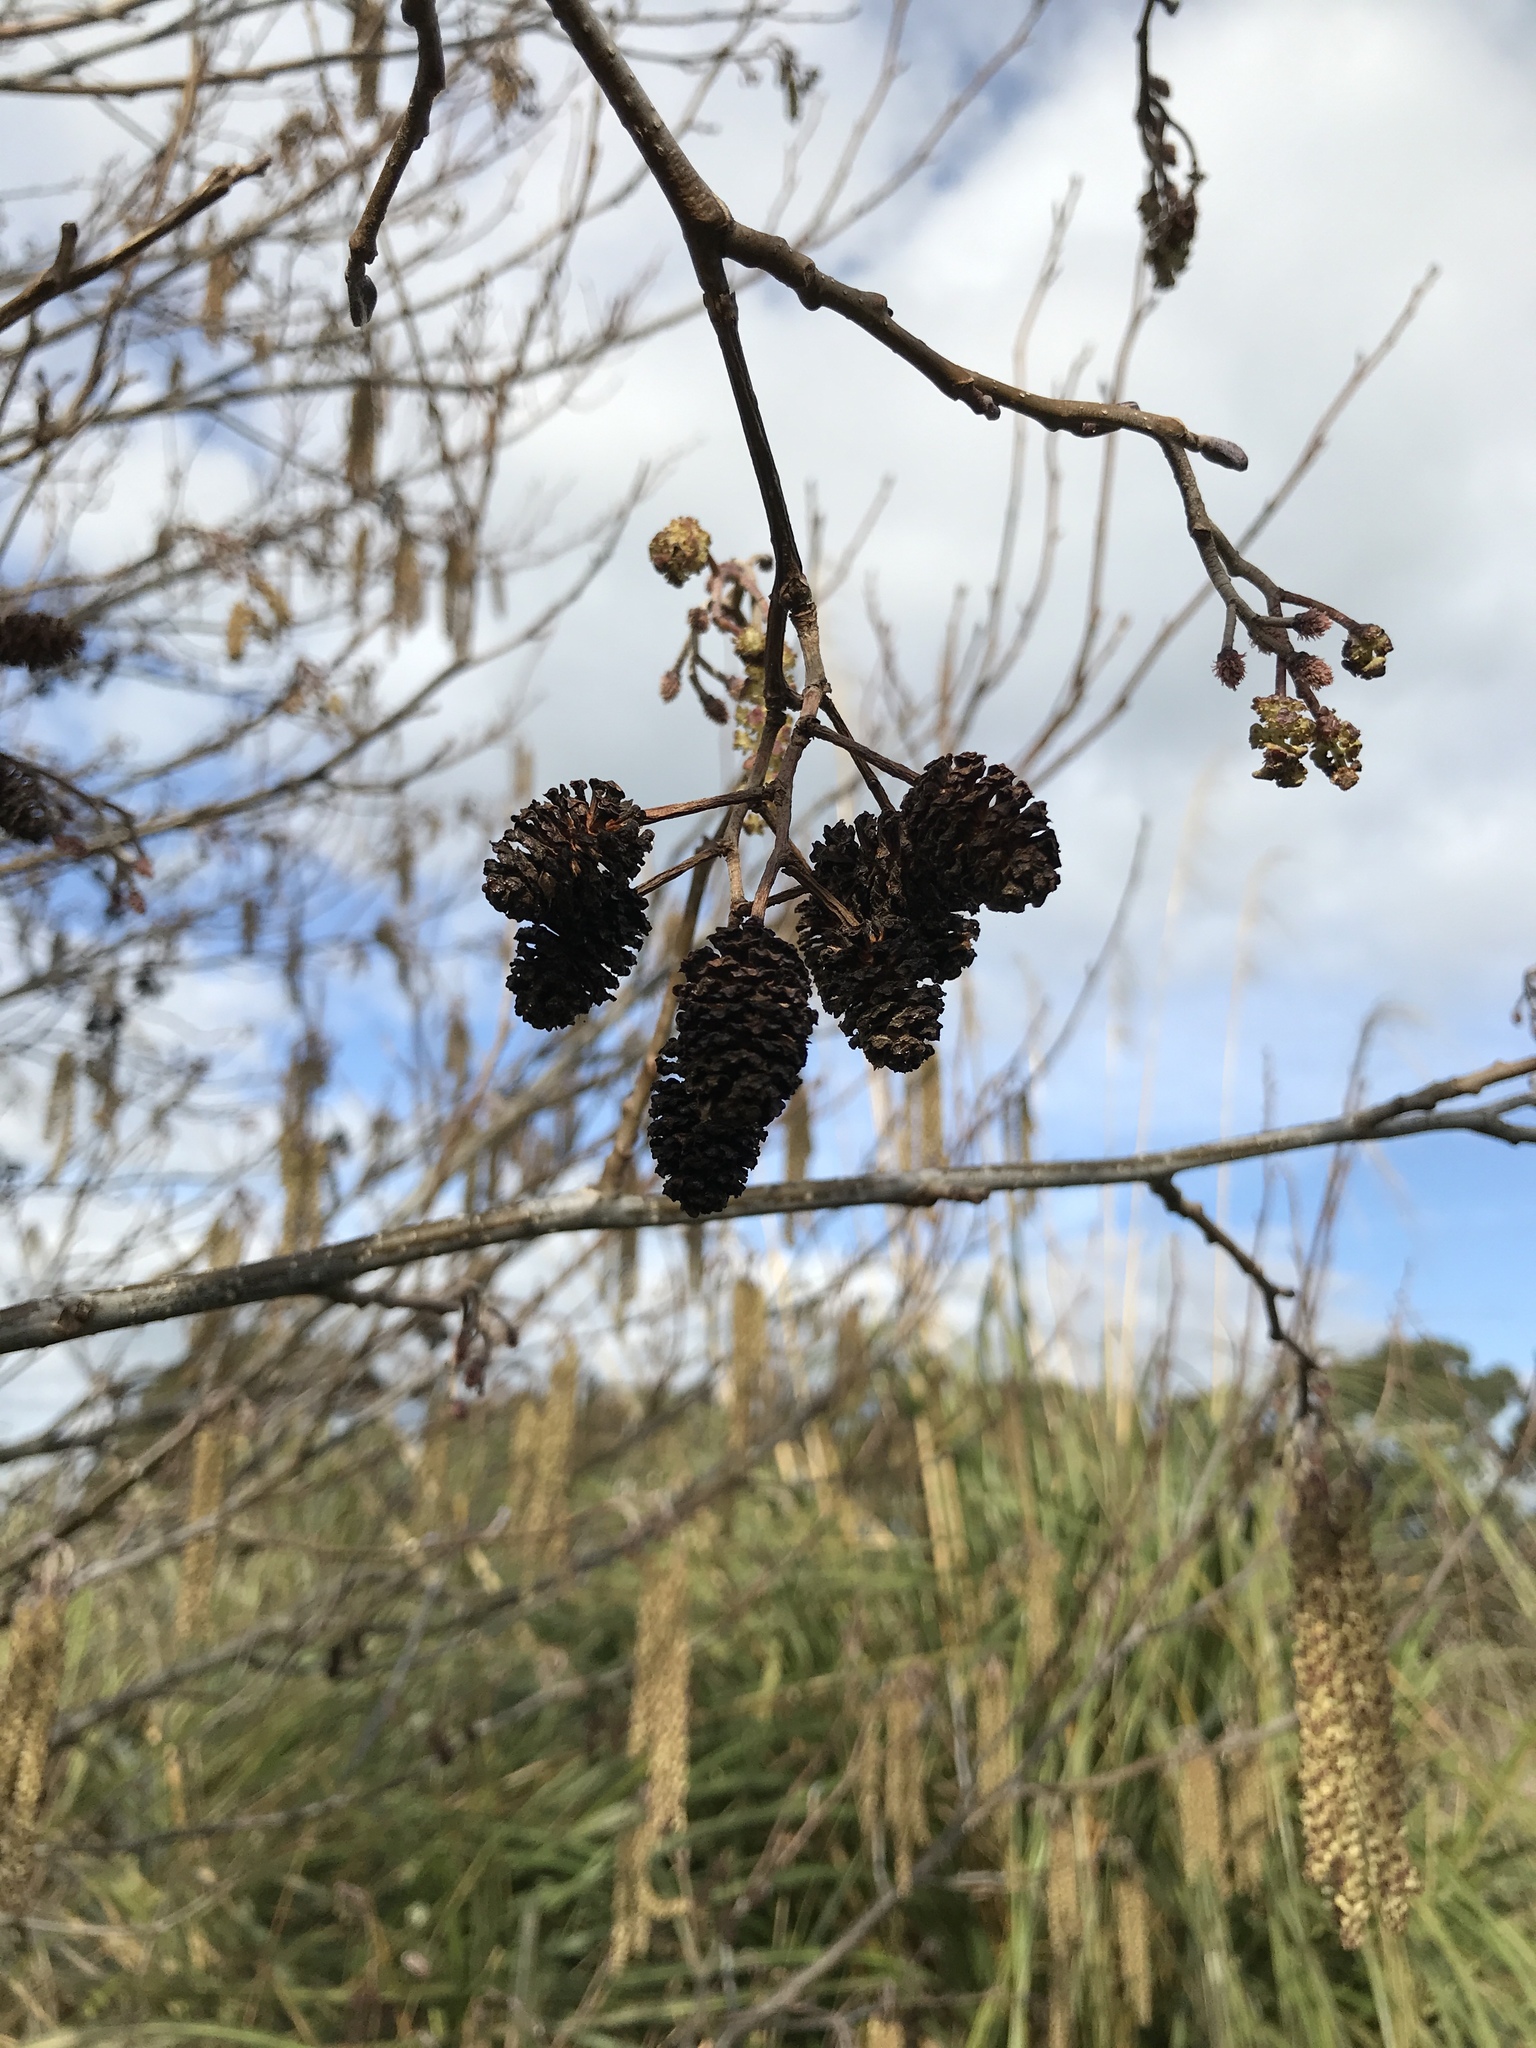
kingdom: Plantae
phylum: Tracheophyta
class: Magnoliopsida
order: Fagales
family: Betulaceae
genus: Alnus
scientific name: Alnus glutinosa
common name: Black alder
